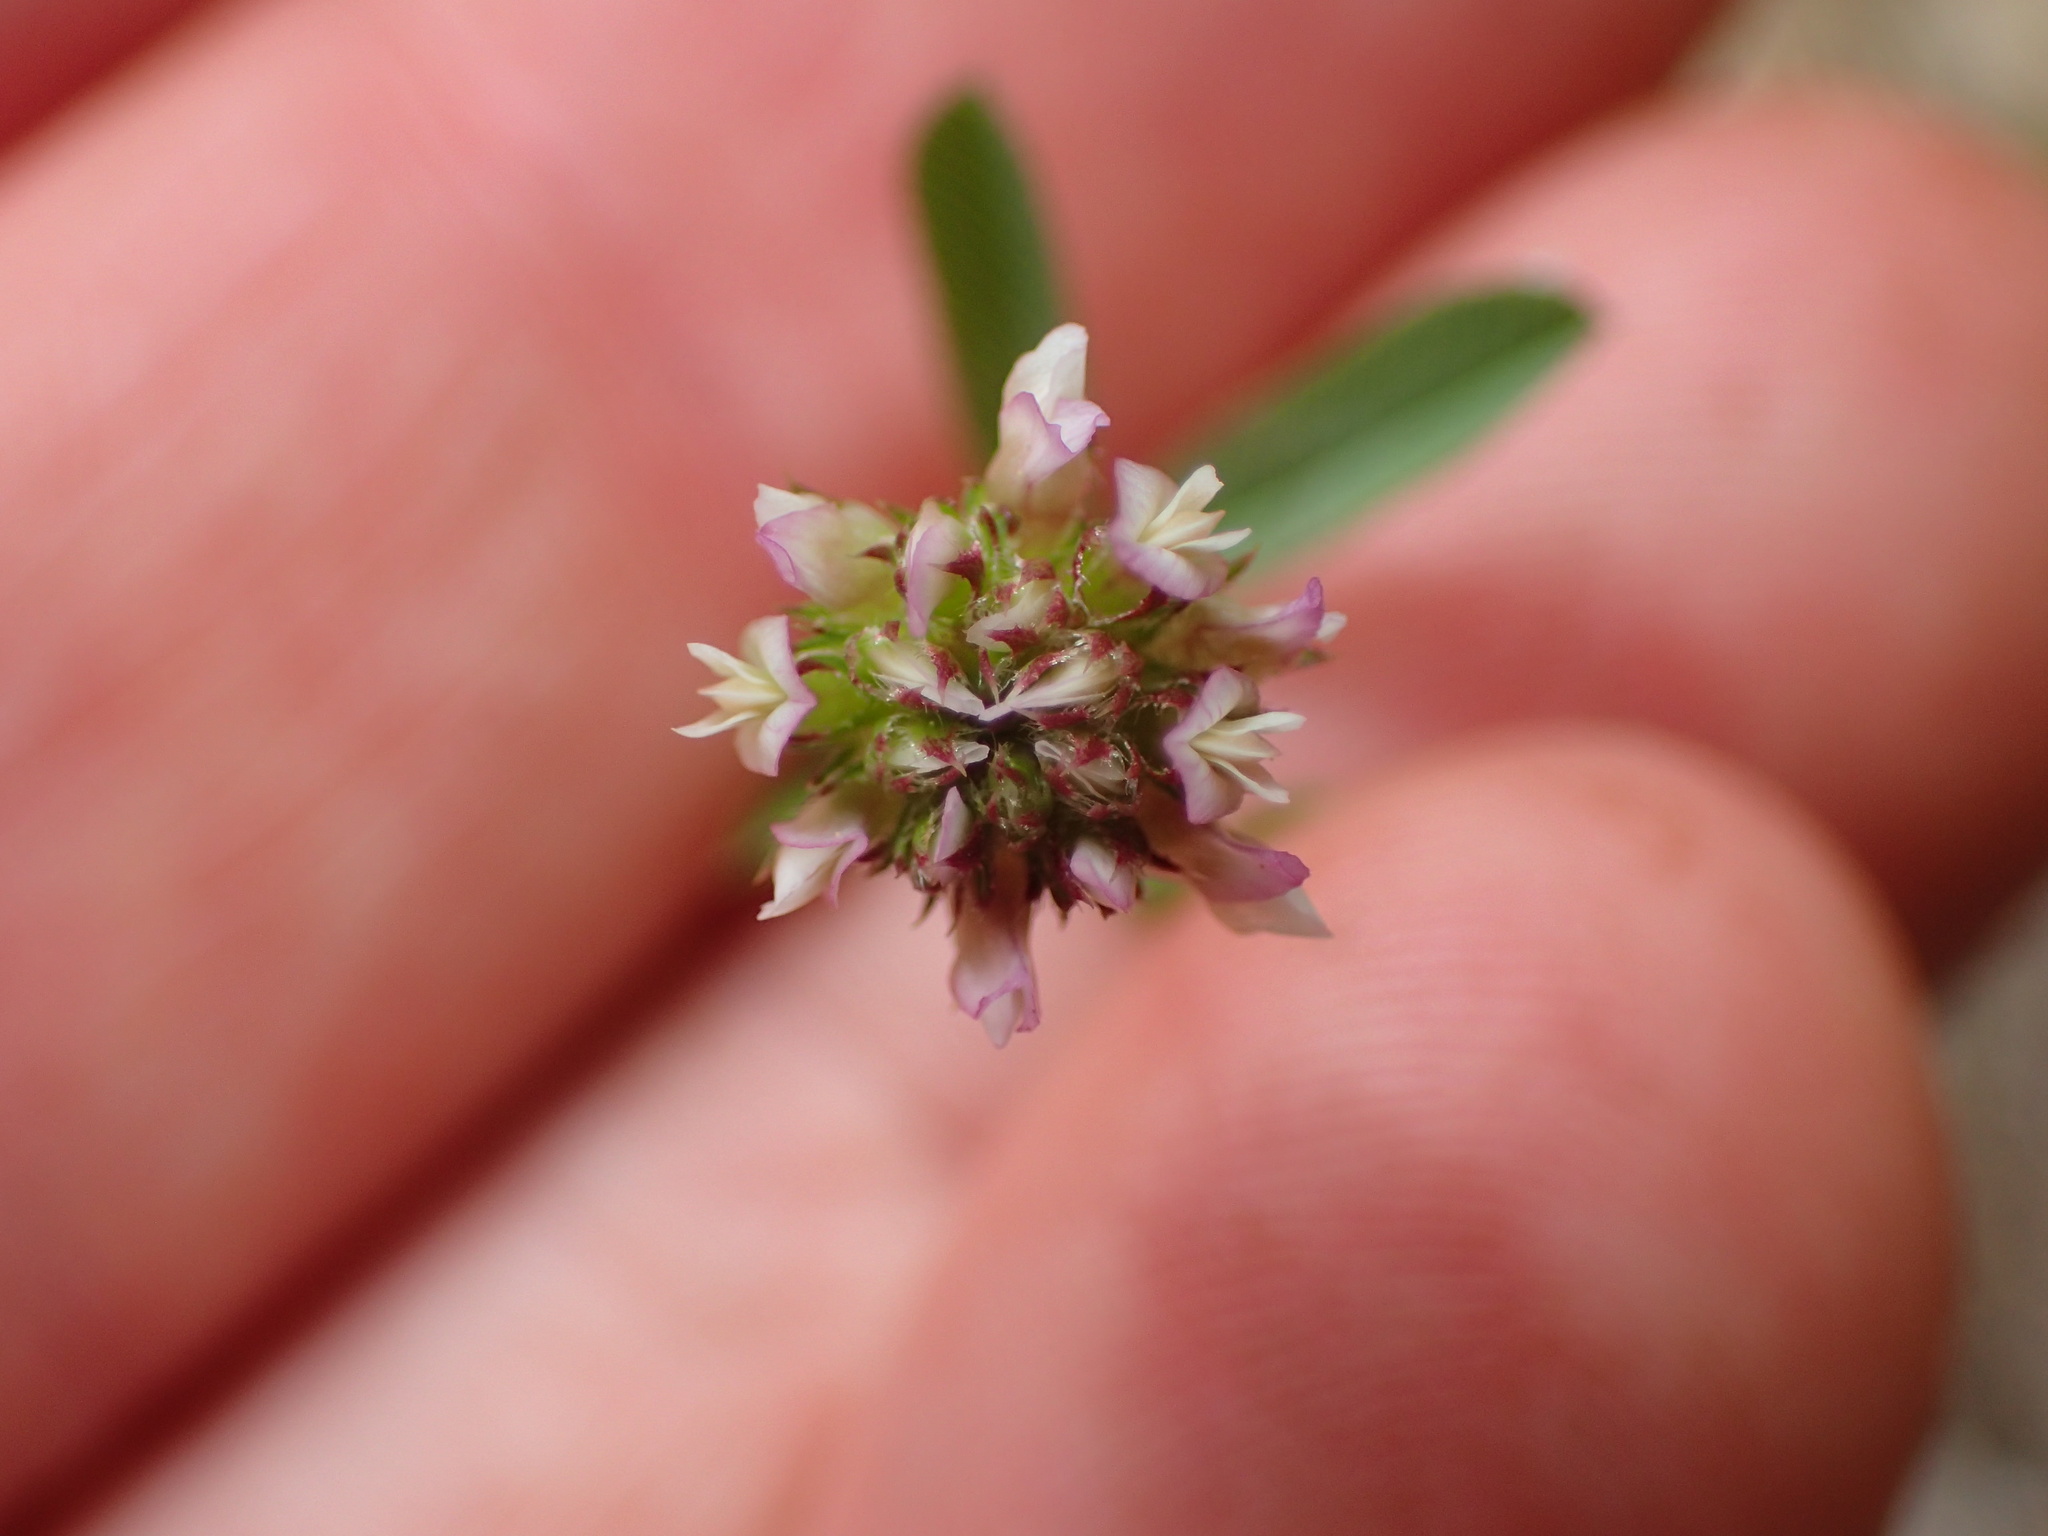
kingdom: Plantae
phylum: Tracheophyta
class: Magnoliopsida
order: Fabales
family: Fabaceae
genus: Trifolium
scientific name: Trifolium ciliolatum
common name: Foothill clover
